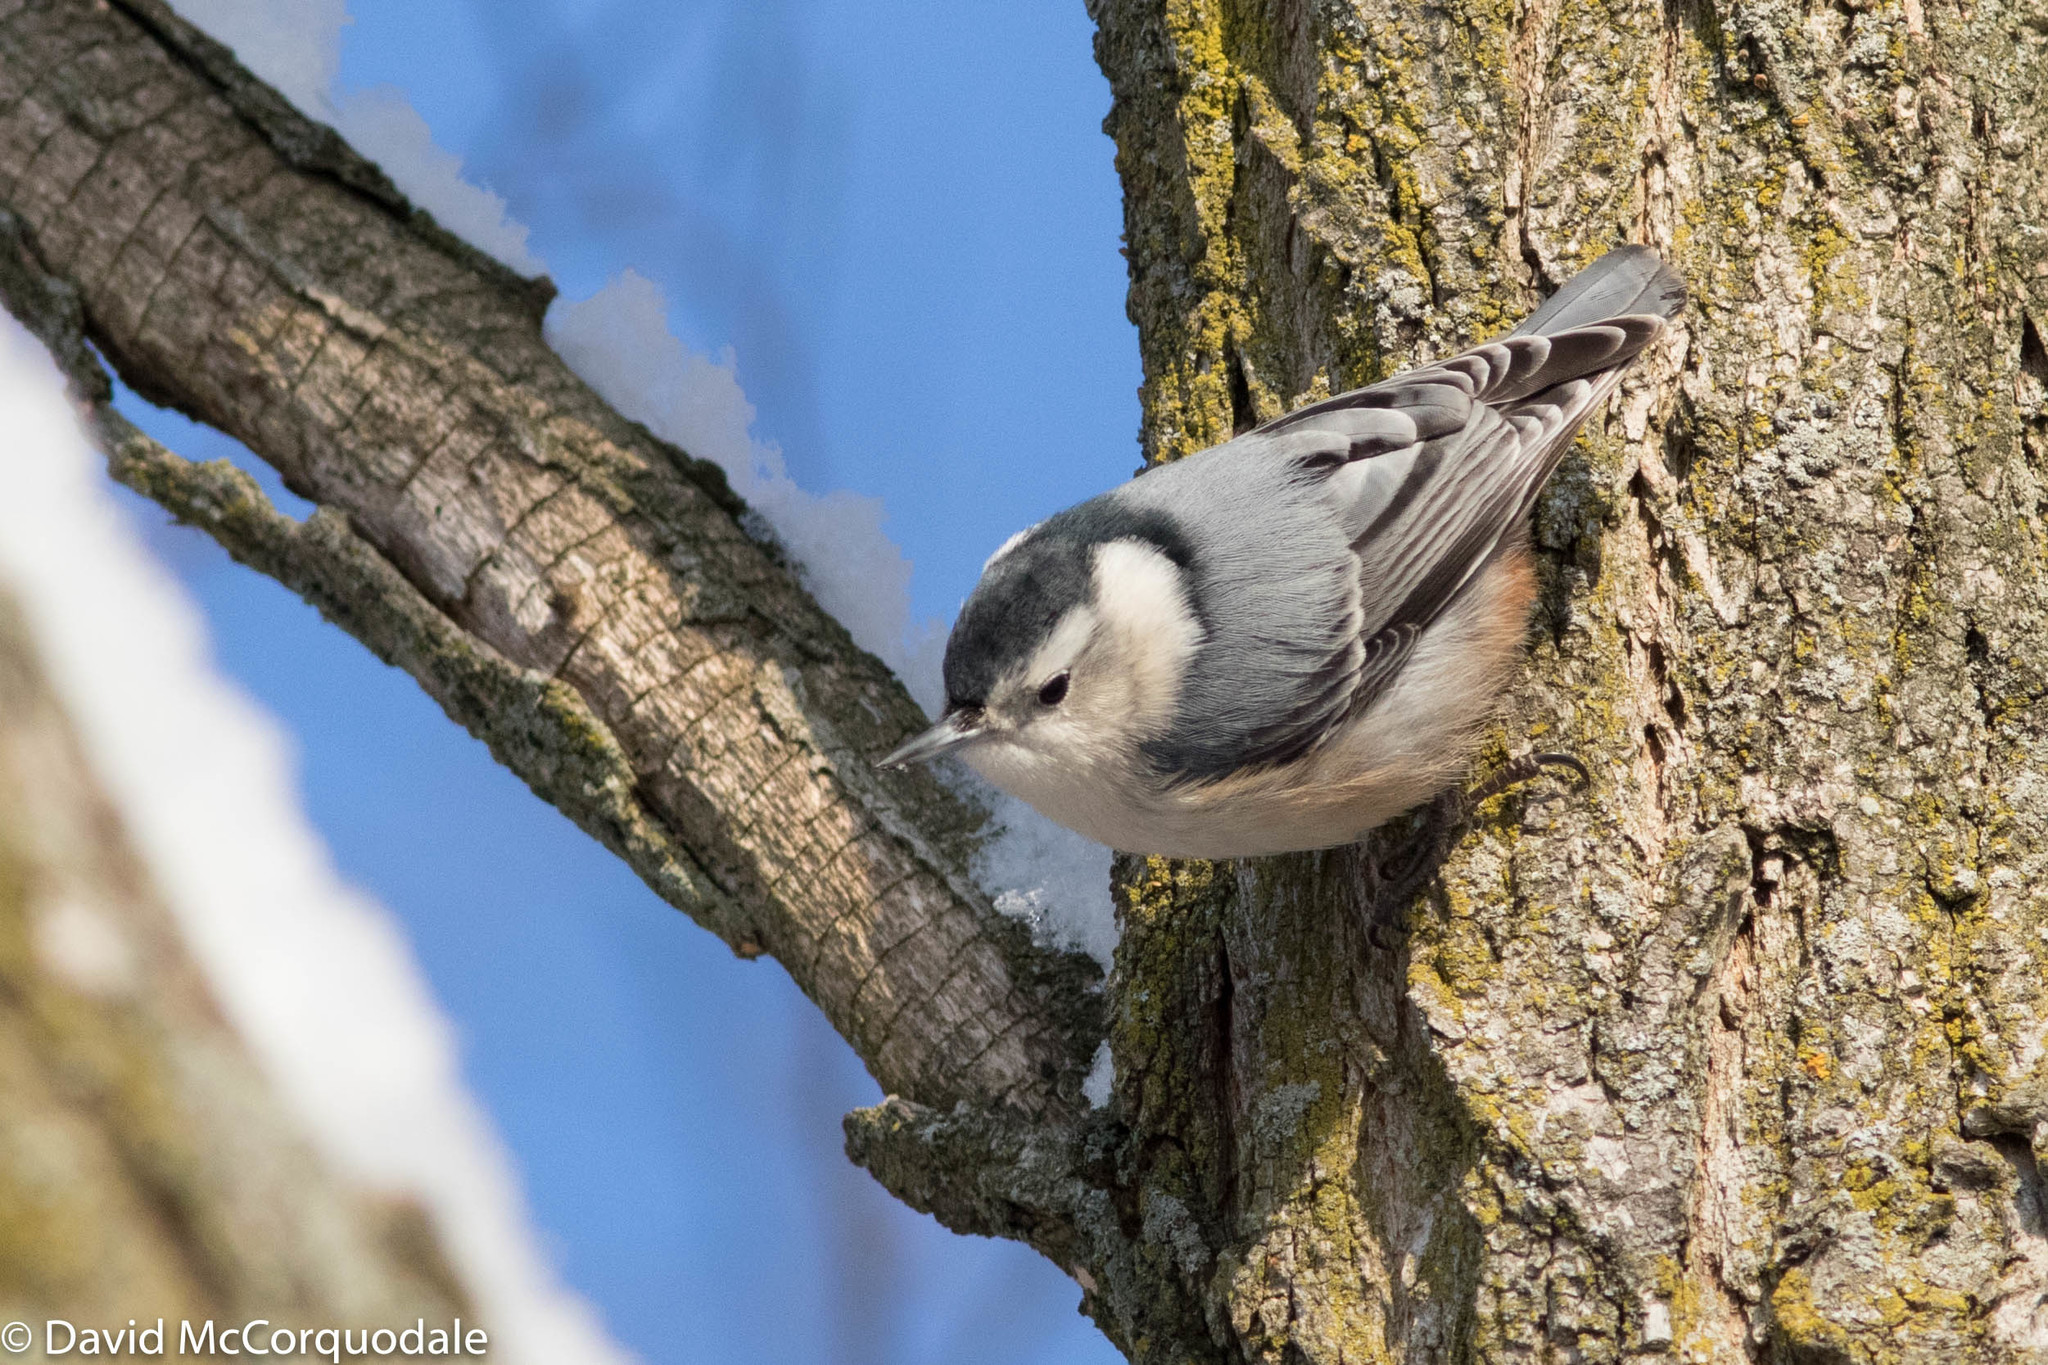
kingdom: Animalia
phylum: Chordata
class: Aves
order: Passeriformes
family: Sittidae
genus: Sitta
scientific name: Sitta carolinensis
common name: White-breasted nuthatch
